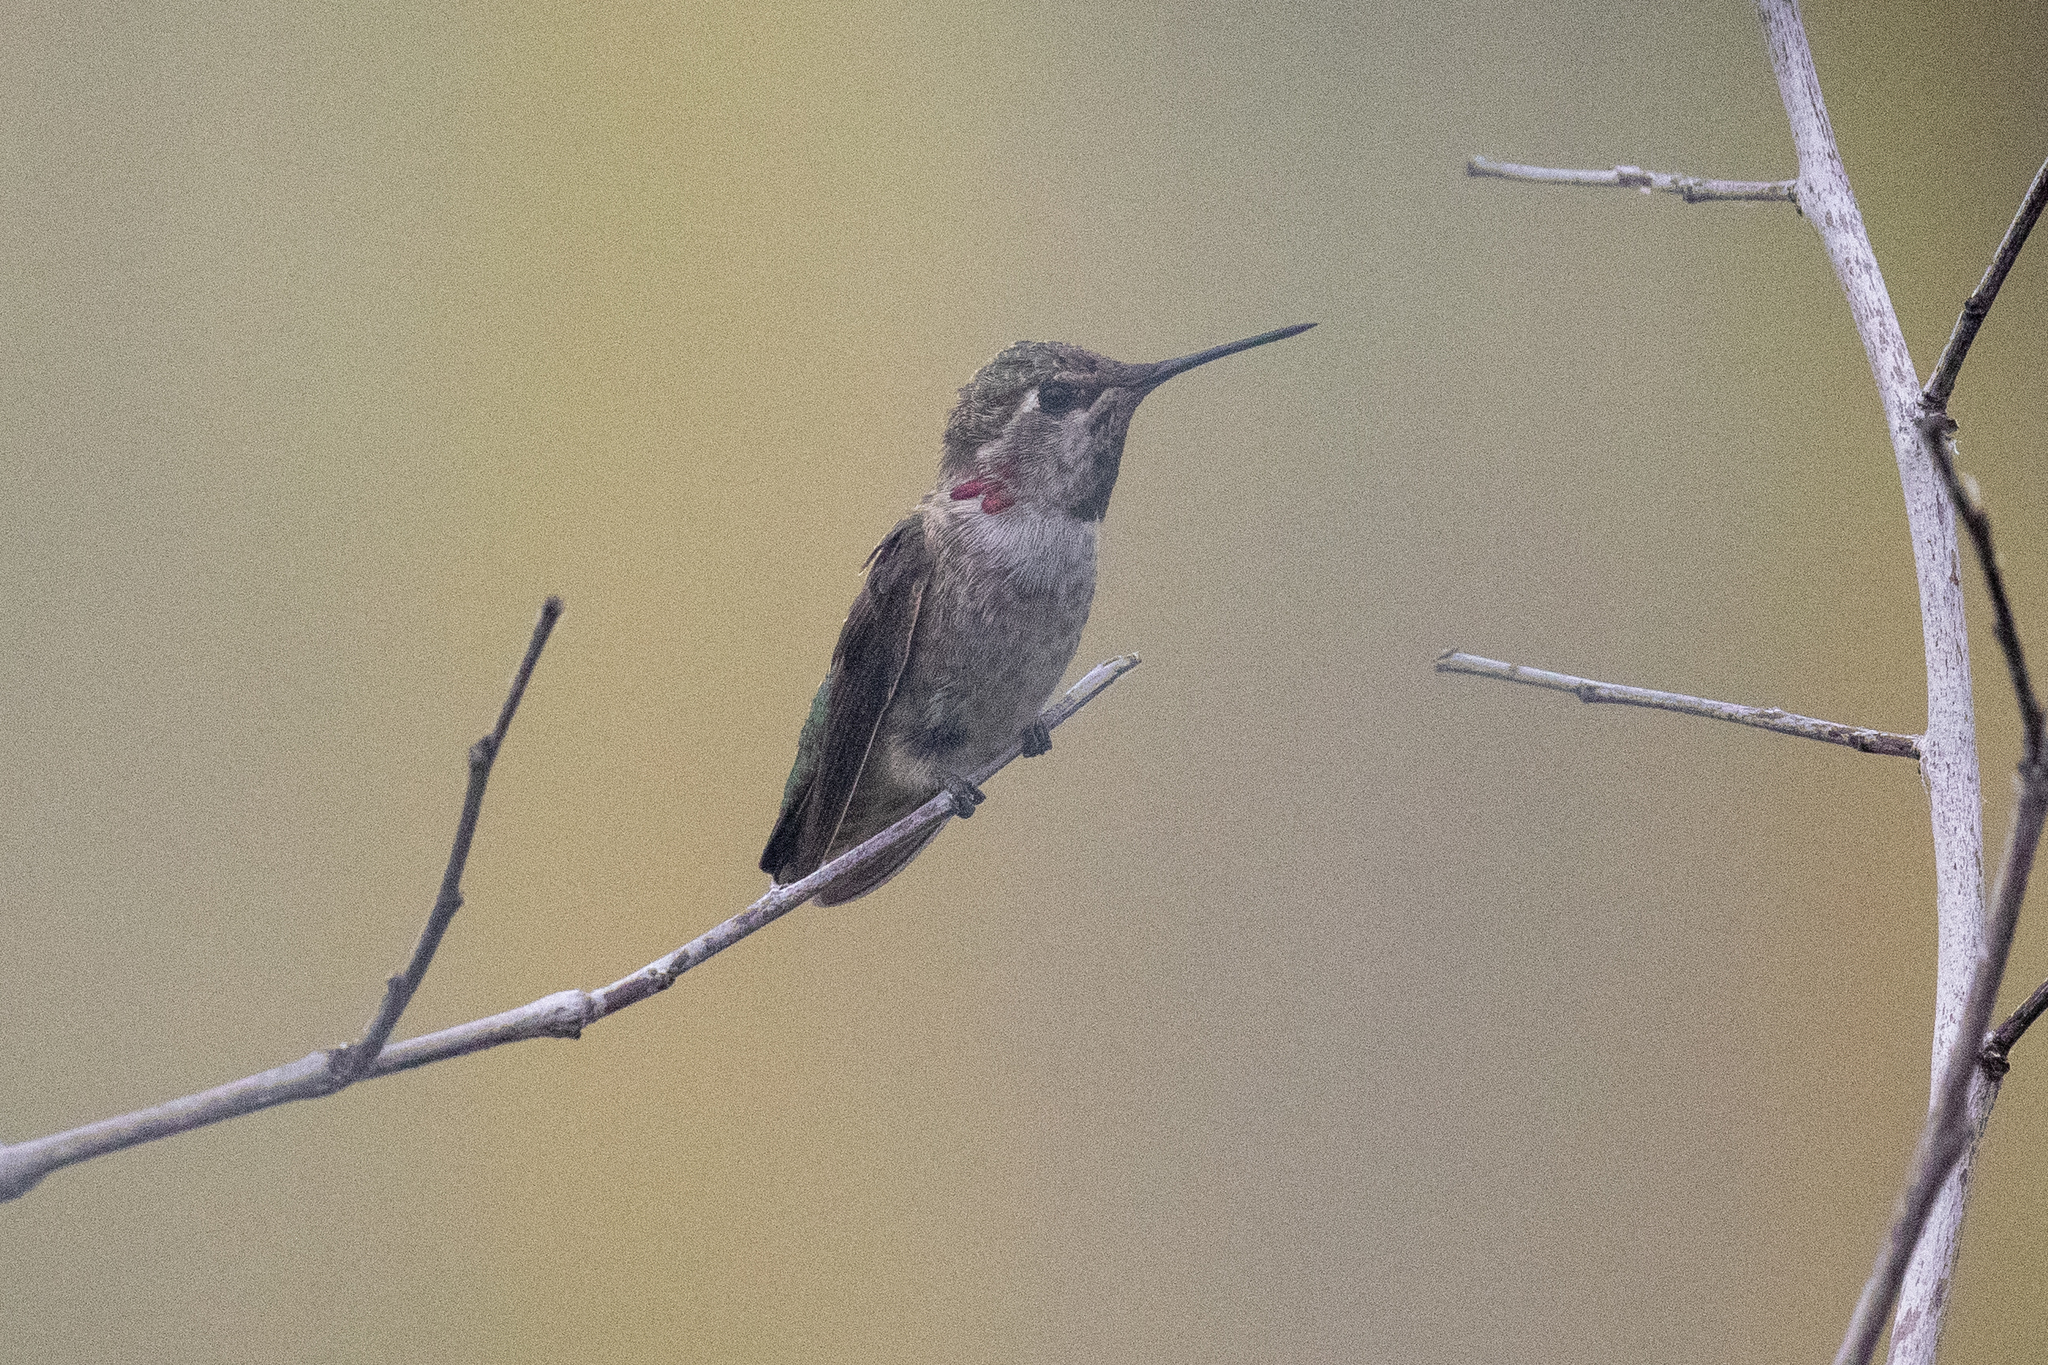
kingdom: Animalia
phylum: Chordata
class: Aves
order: Apodiformes
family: Trochilidae
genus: Calypte
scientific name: Calypte anna
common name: Anna's hummingbird
